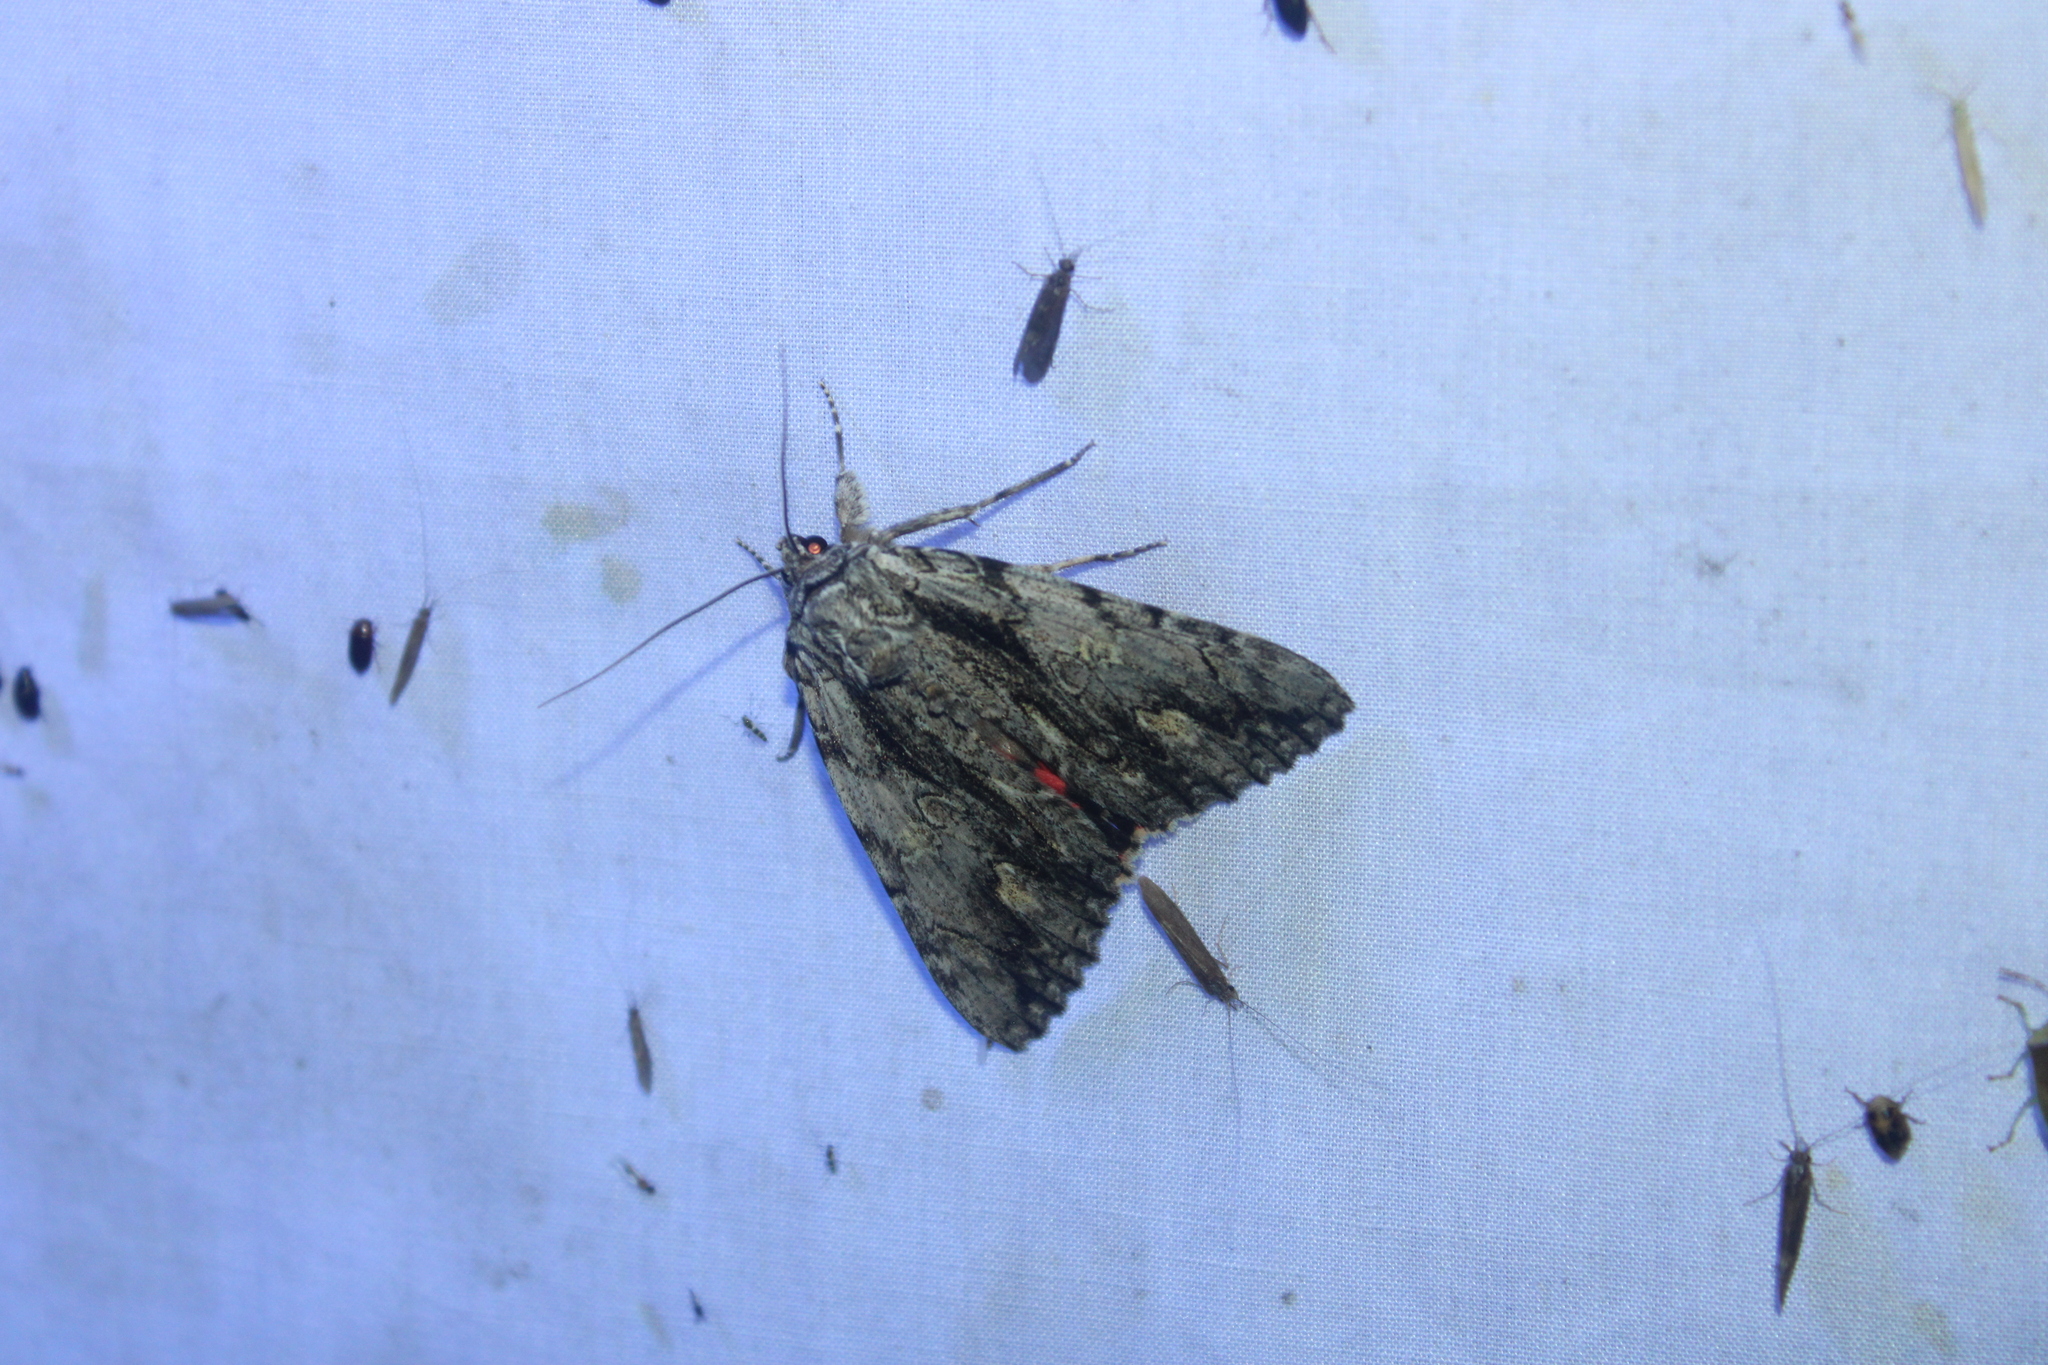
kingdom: Animalia
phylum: Arthropoda
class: Insecta
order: Lepidoptera
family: Erebidae
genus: Catocala
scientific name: Catocala coccinata
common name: Scarlet underwing
